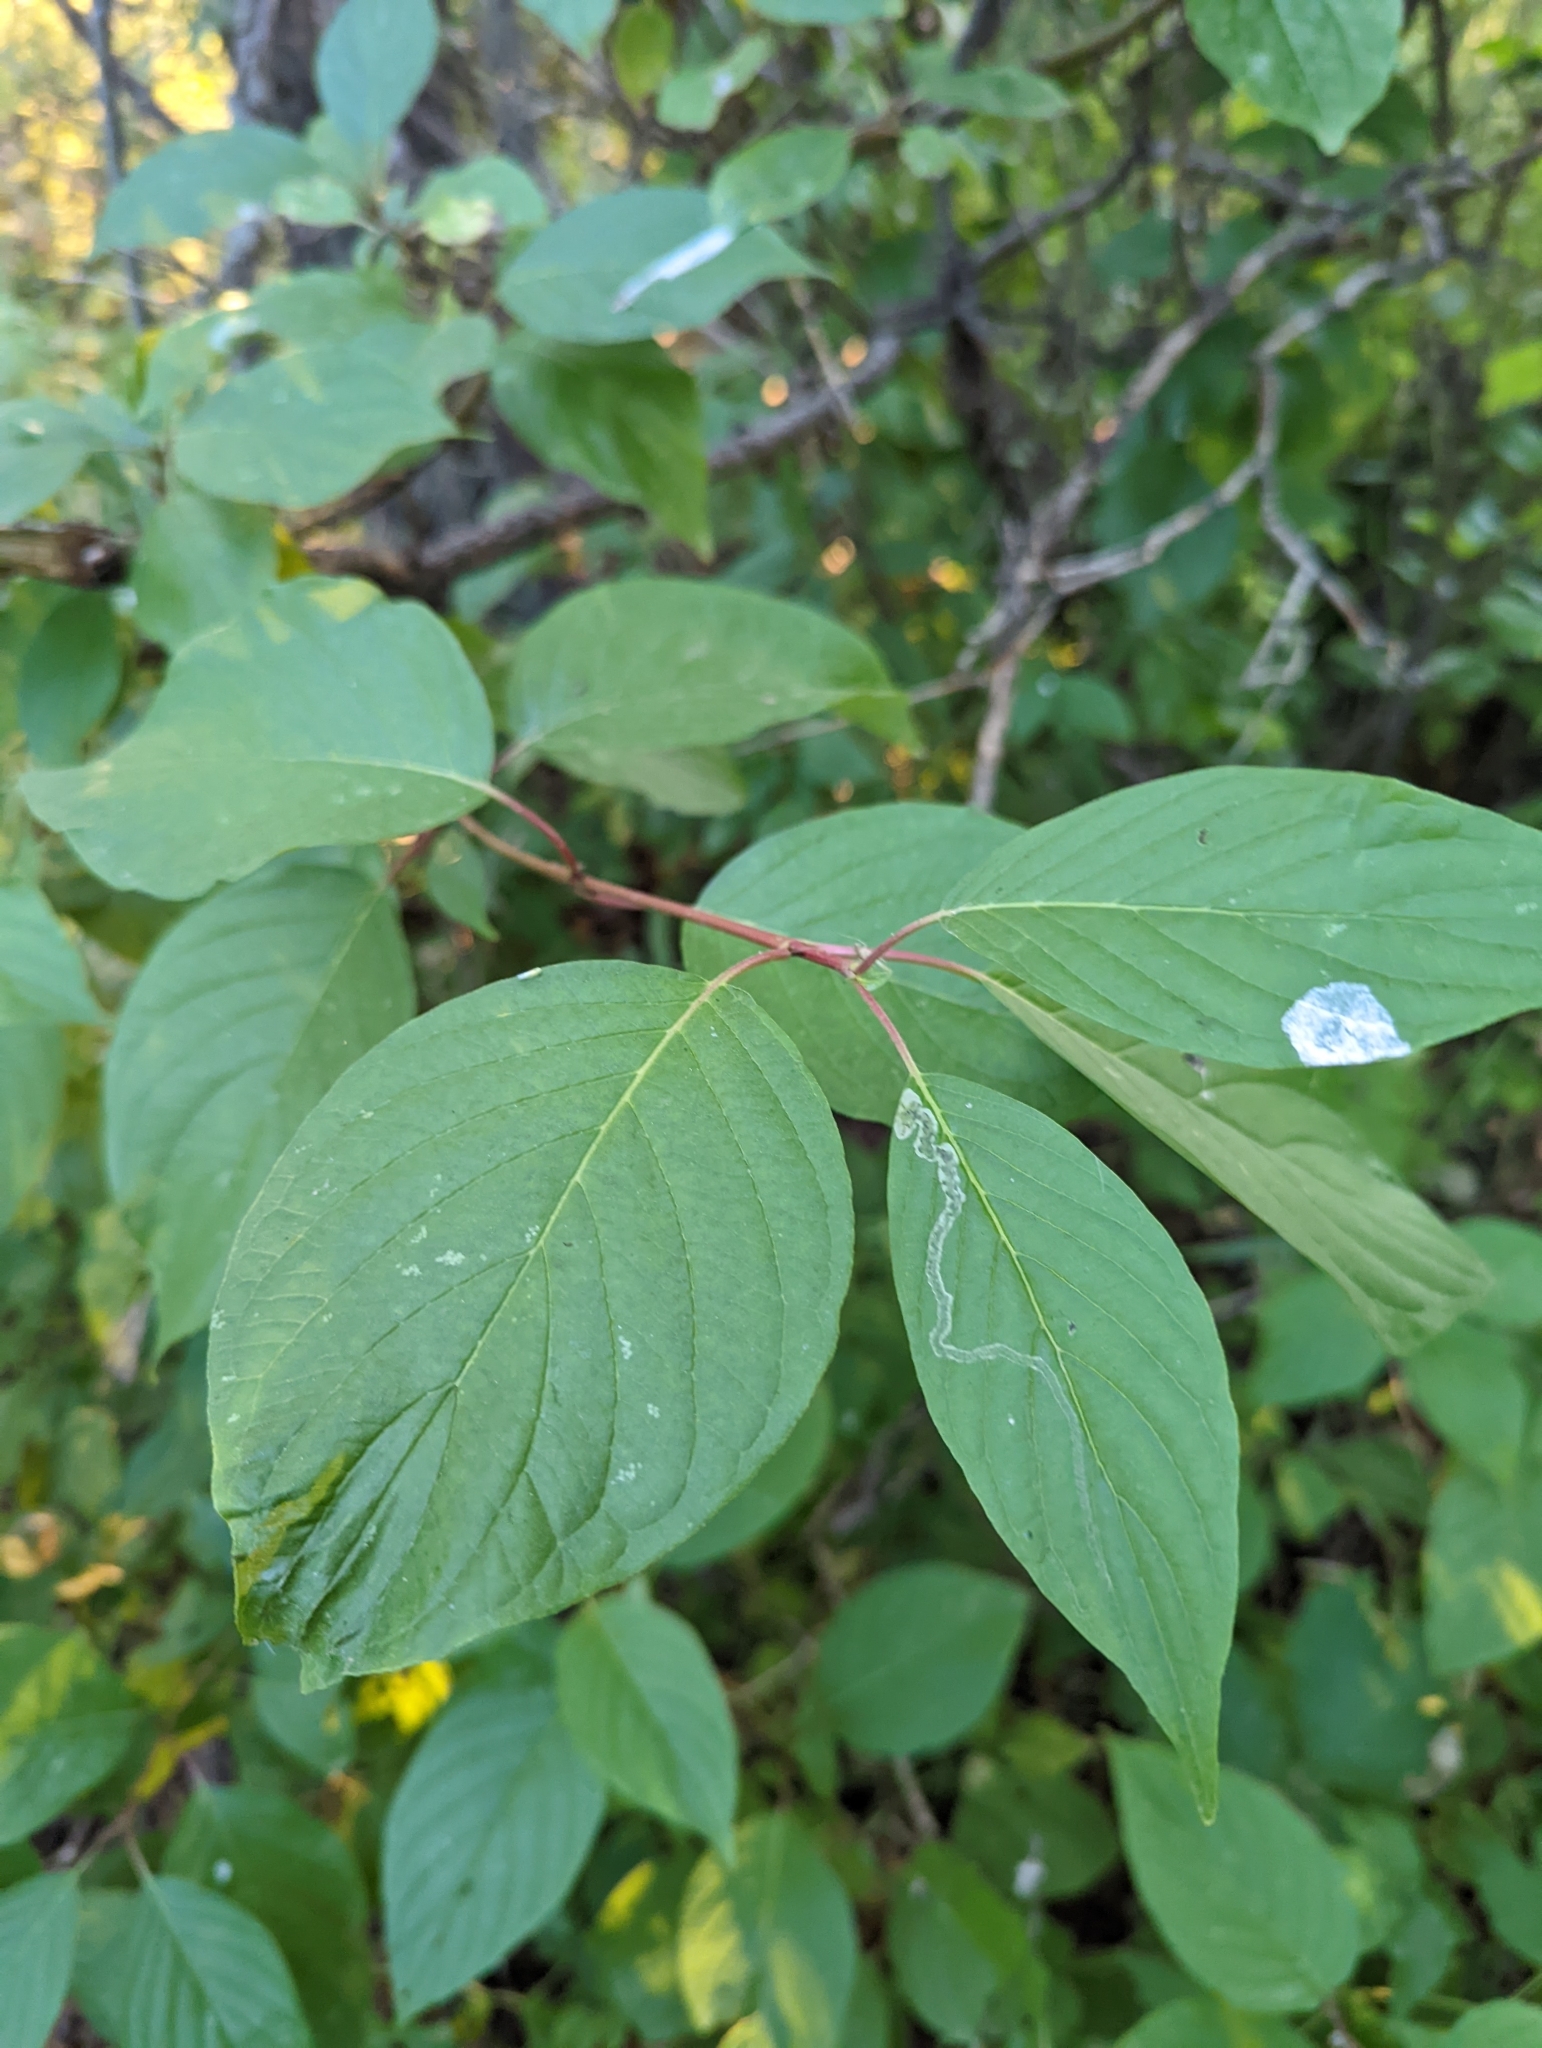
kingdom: Plantae
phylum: Tracheophyta
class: Magnoliopsida
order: Cornales
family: Cornaceae
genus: Cornus
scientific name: Cornus sericea
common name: Red-osier dogwood
